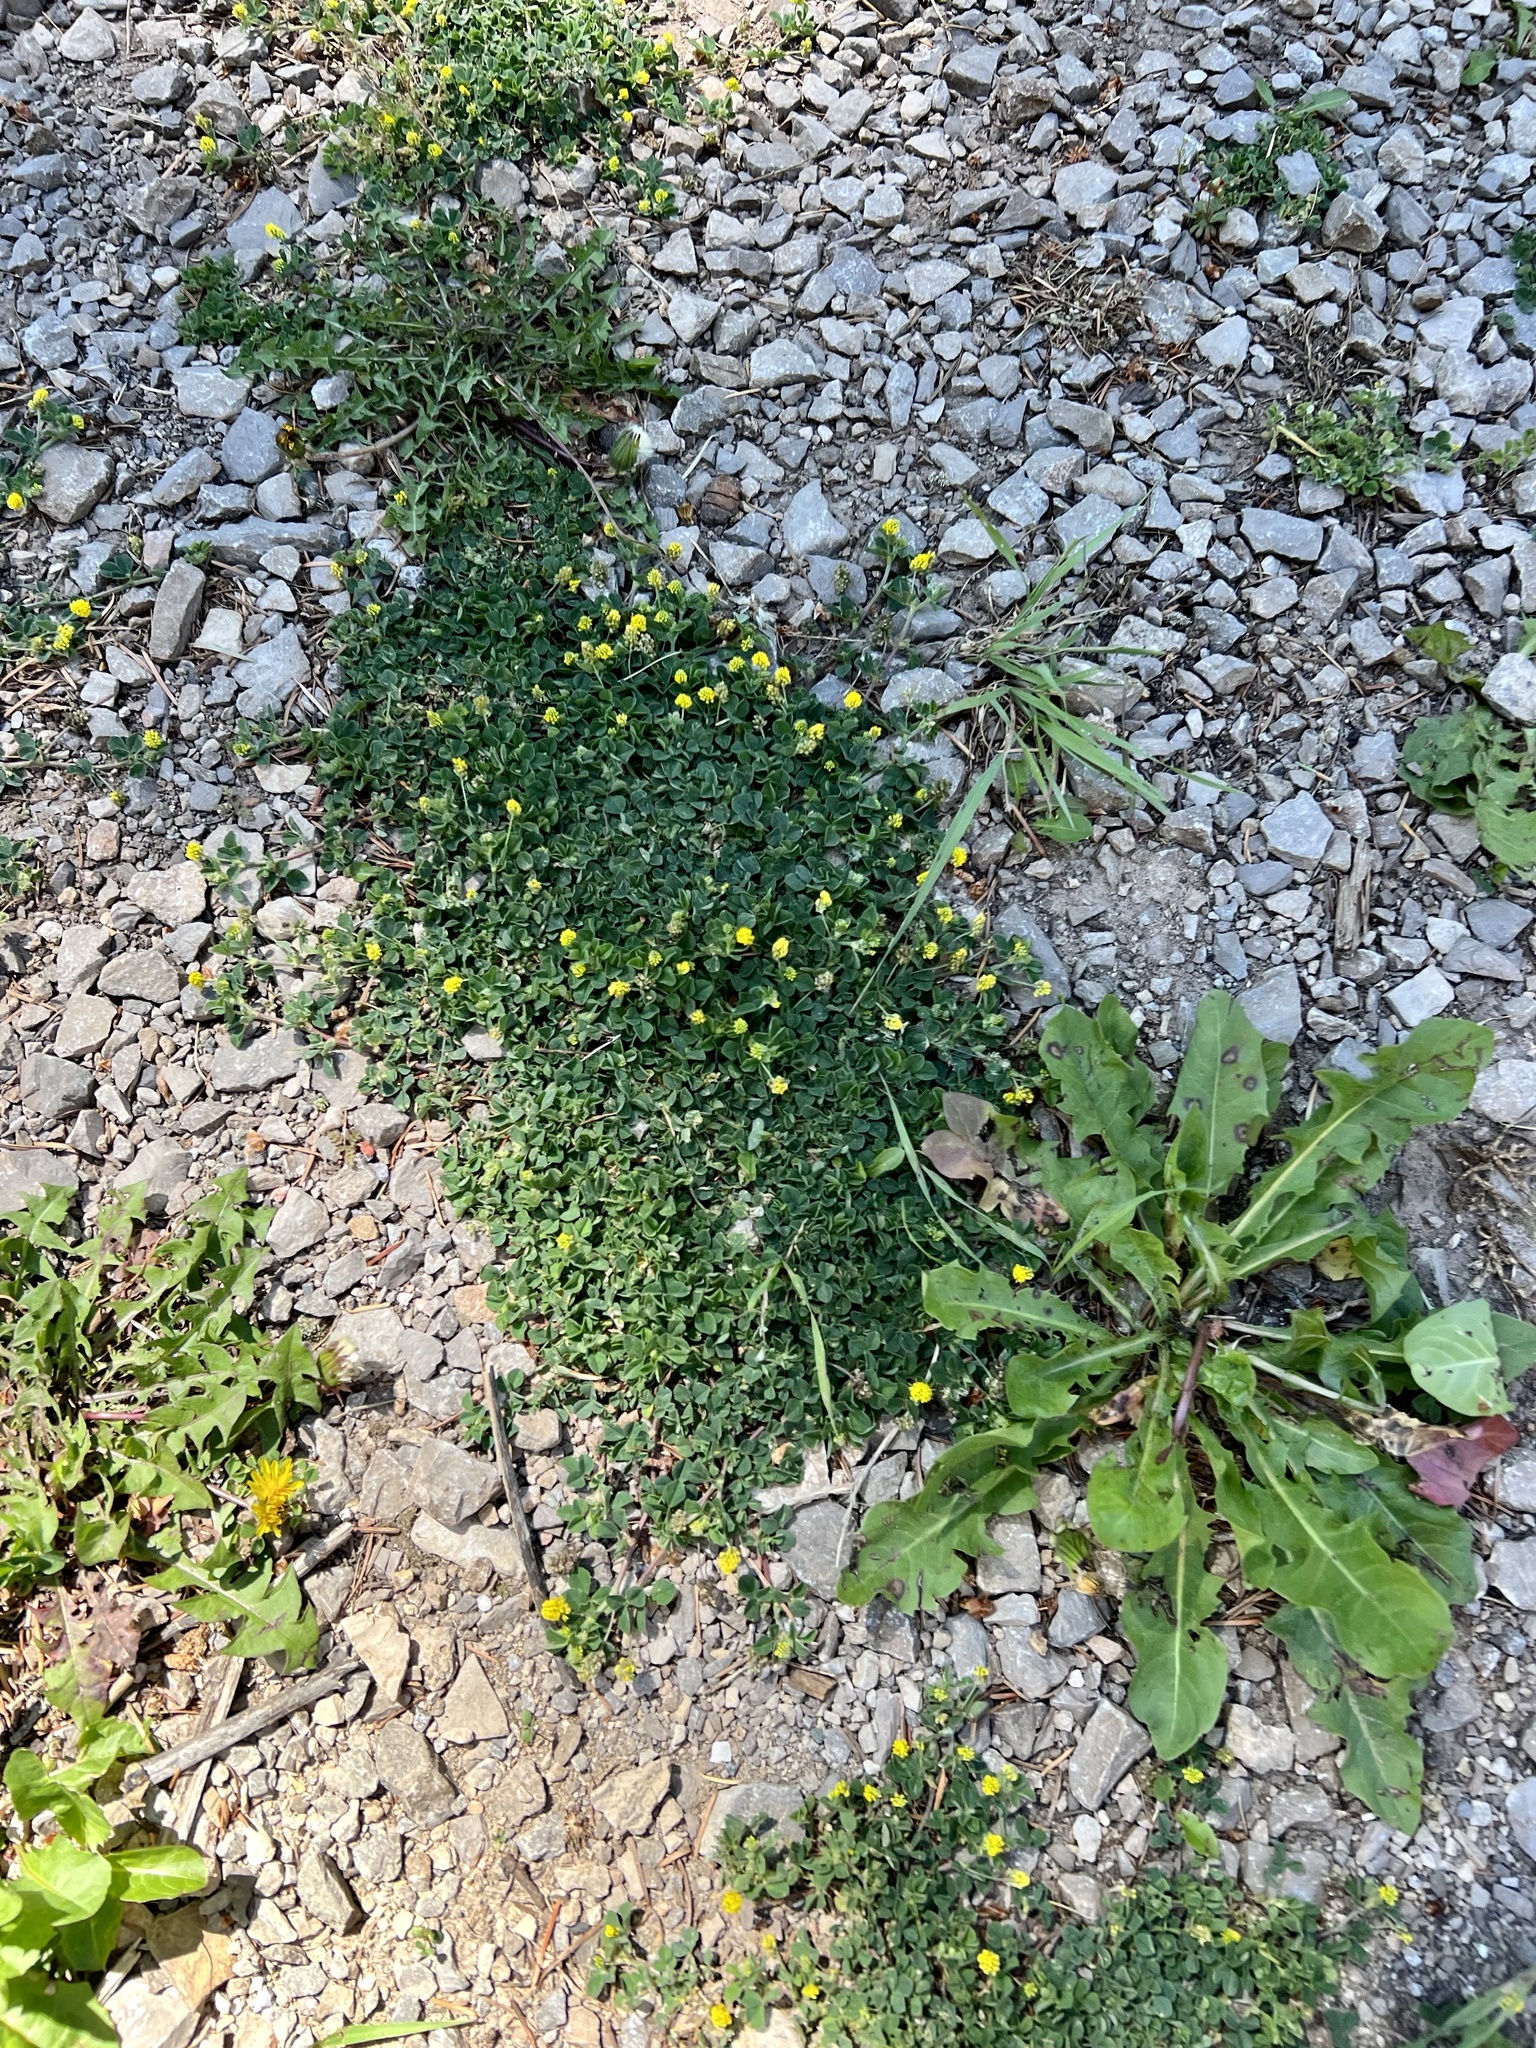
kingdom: Plantae
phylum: Tracheophyta
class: Magnoliopsida
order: Fabales
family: Fabaceae
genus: Medicago
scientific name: Medicago lupulina
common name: Black medick
